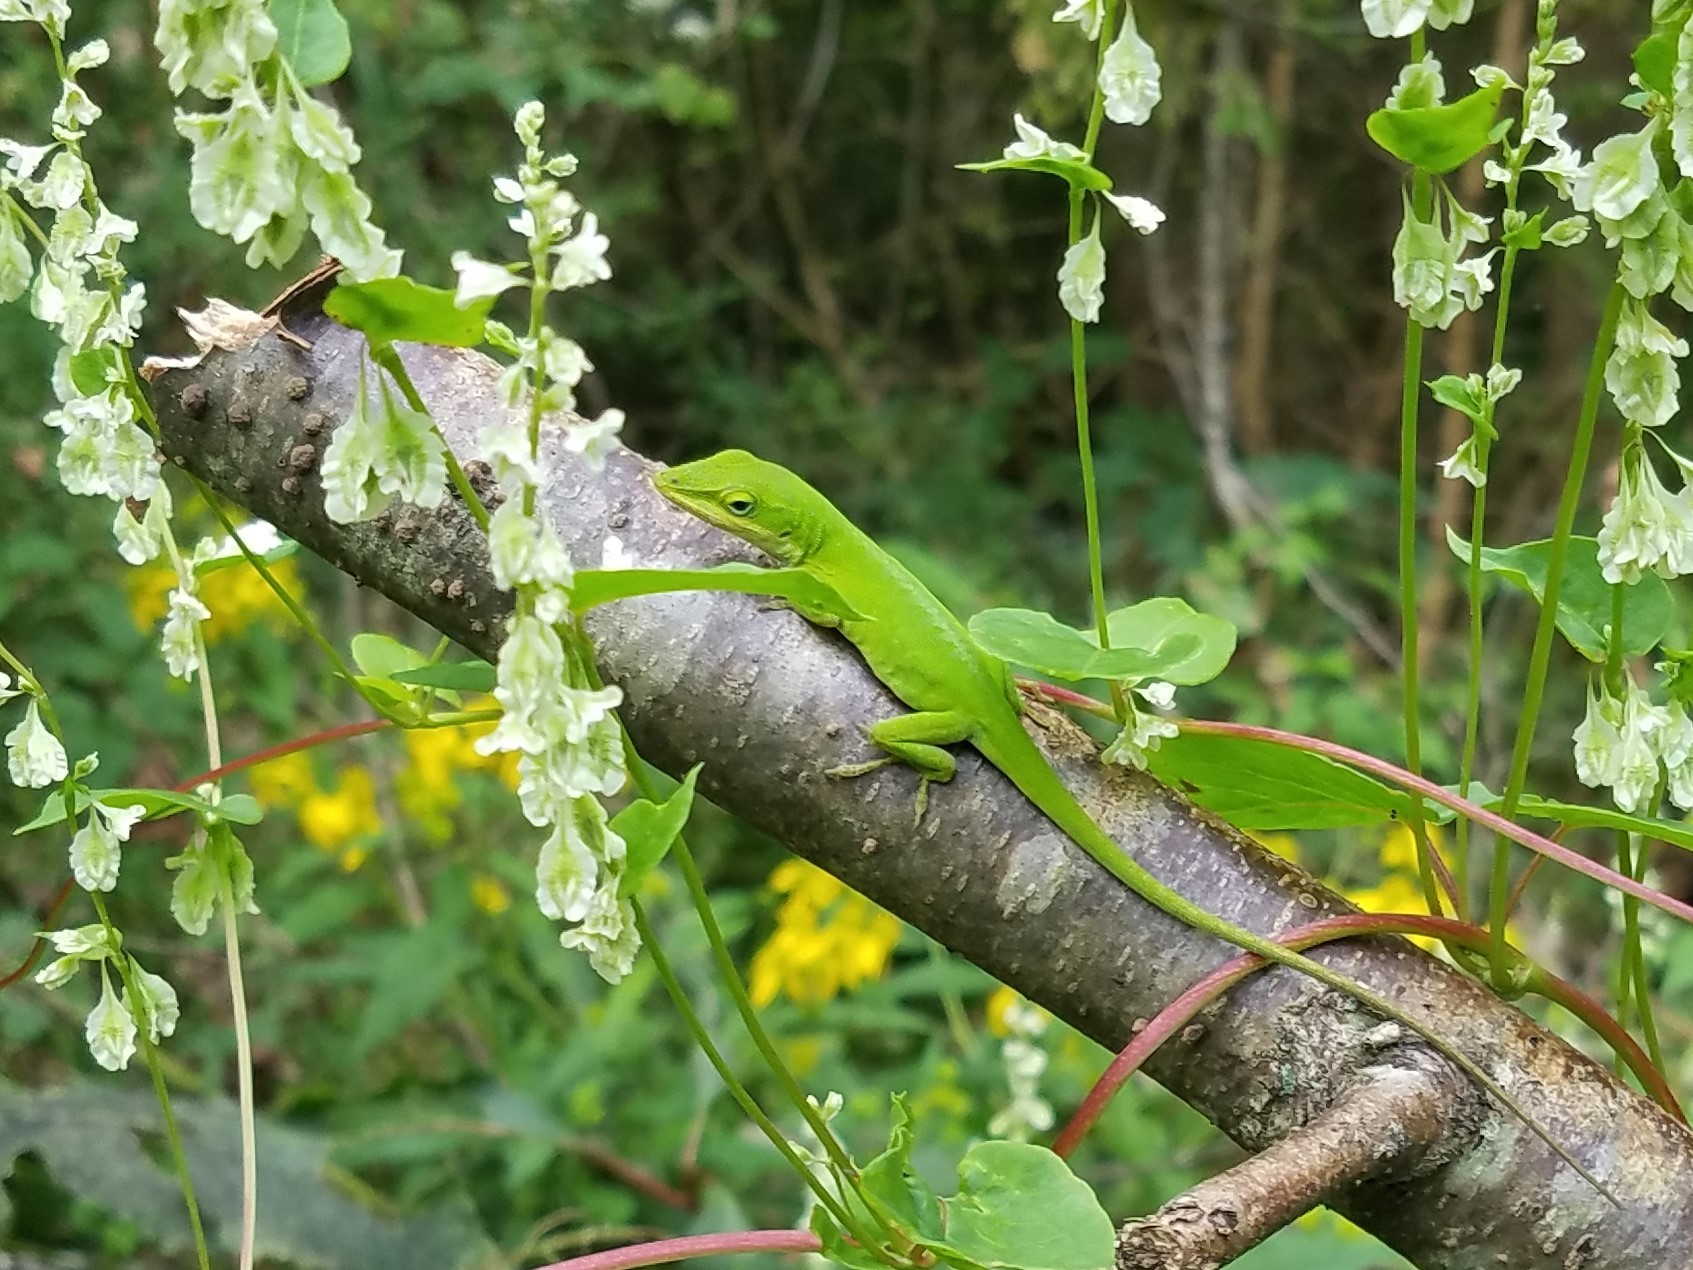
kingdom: Animalia
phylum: Chordata
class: Squamata
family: Dactyloidae
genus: Anolis
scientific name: Anolis carolinensis
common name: Green anole
